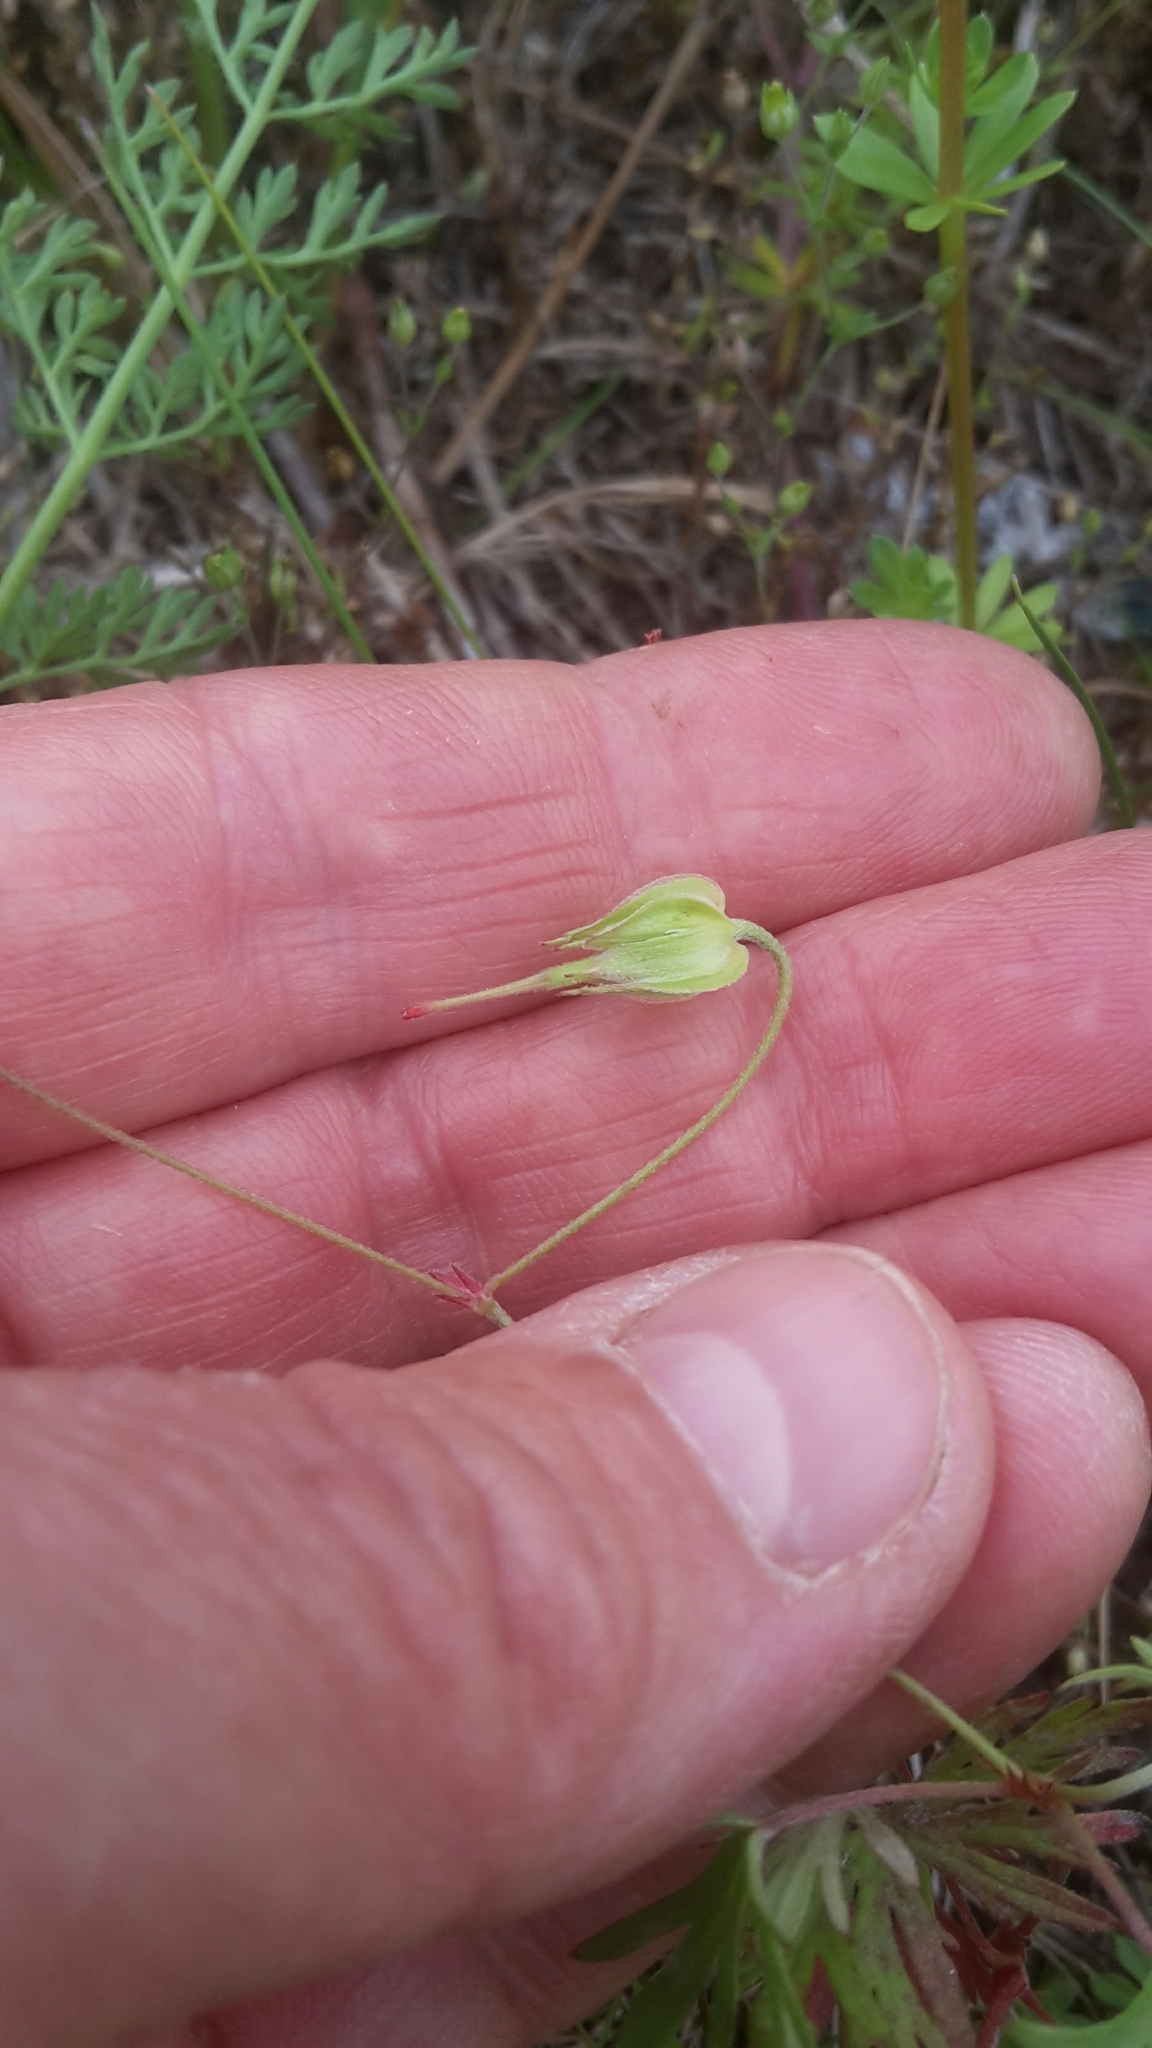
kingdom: Plantae
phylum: Tracheophyta
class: Magnoliopsida
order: Geraniales
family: Geraniaceae
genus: Geranium
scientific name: Geranium columbinum
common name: Long-stalked crane's-bill
